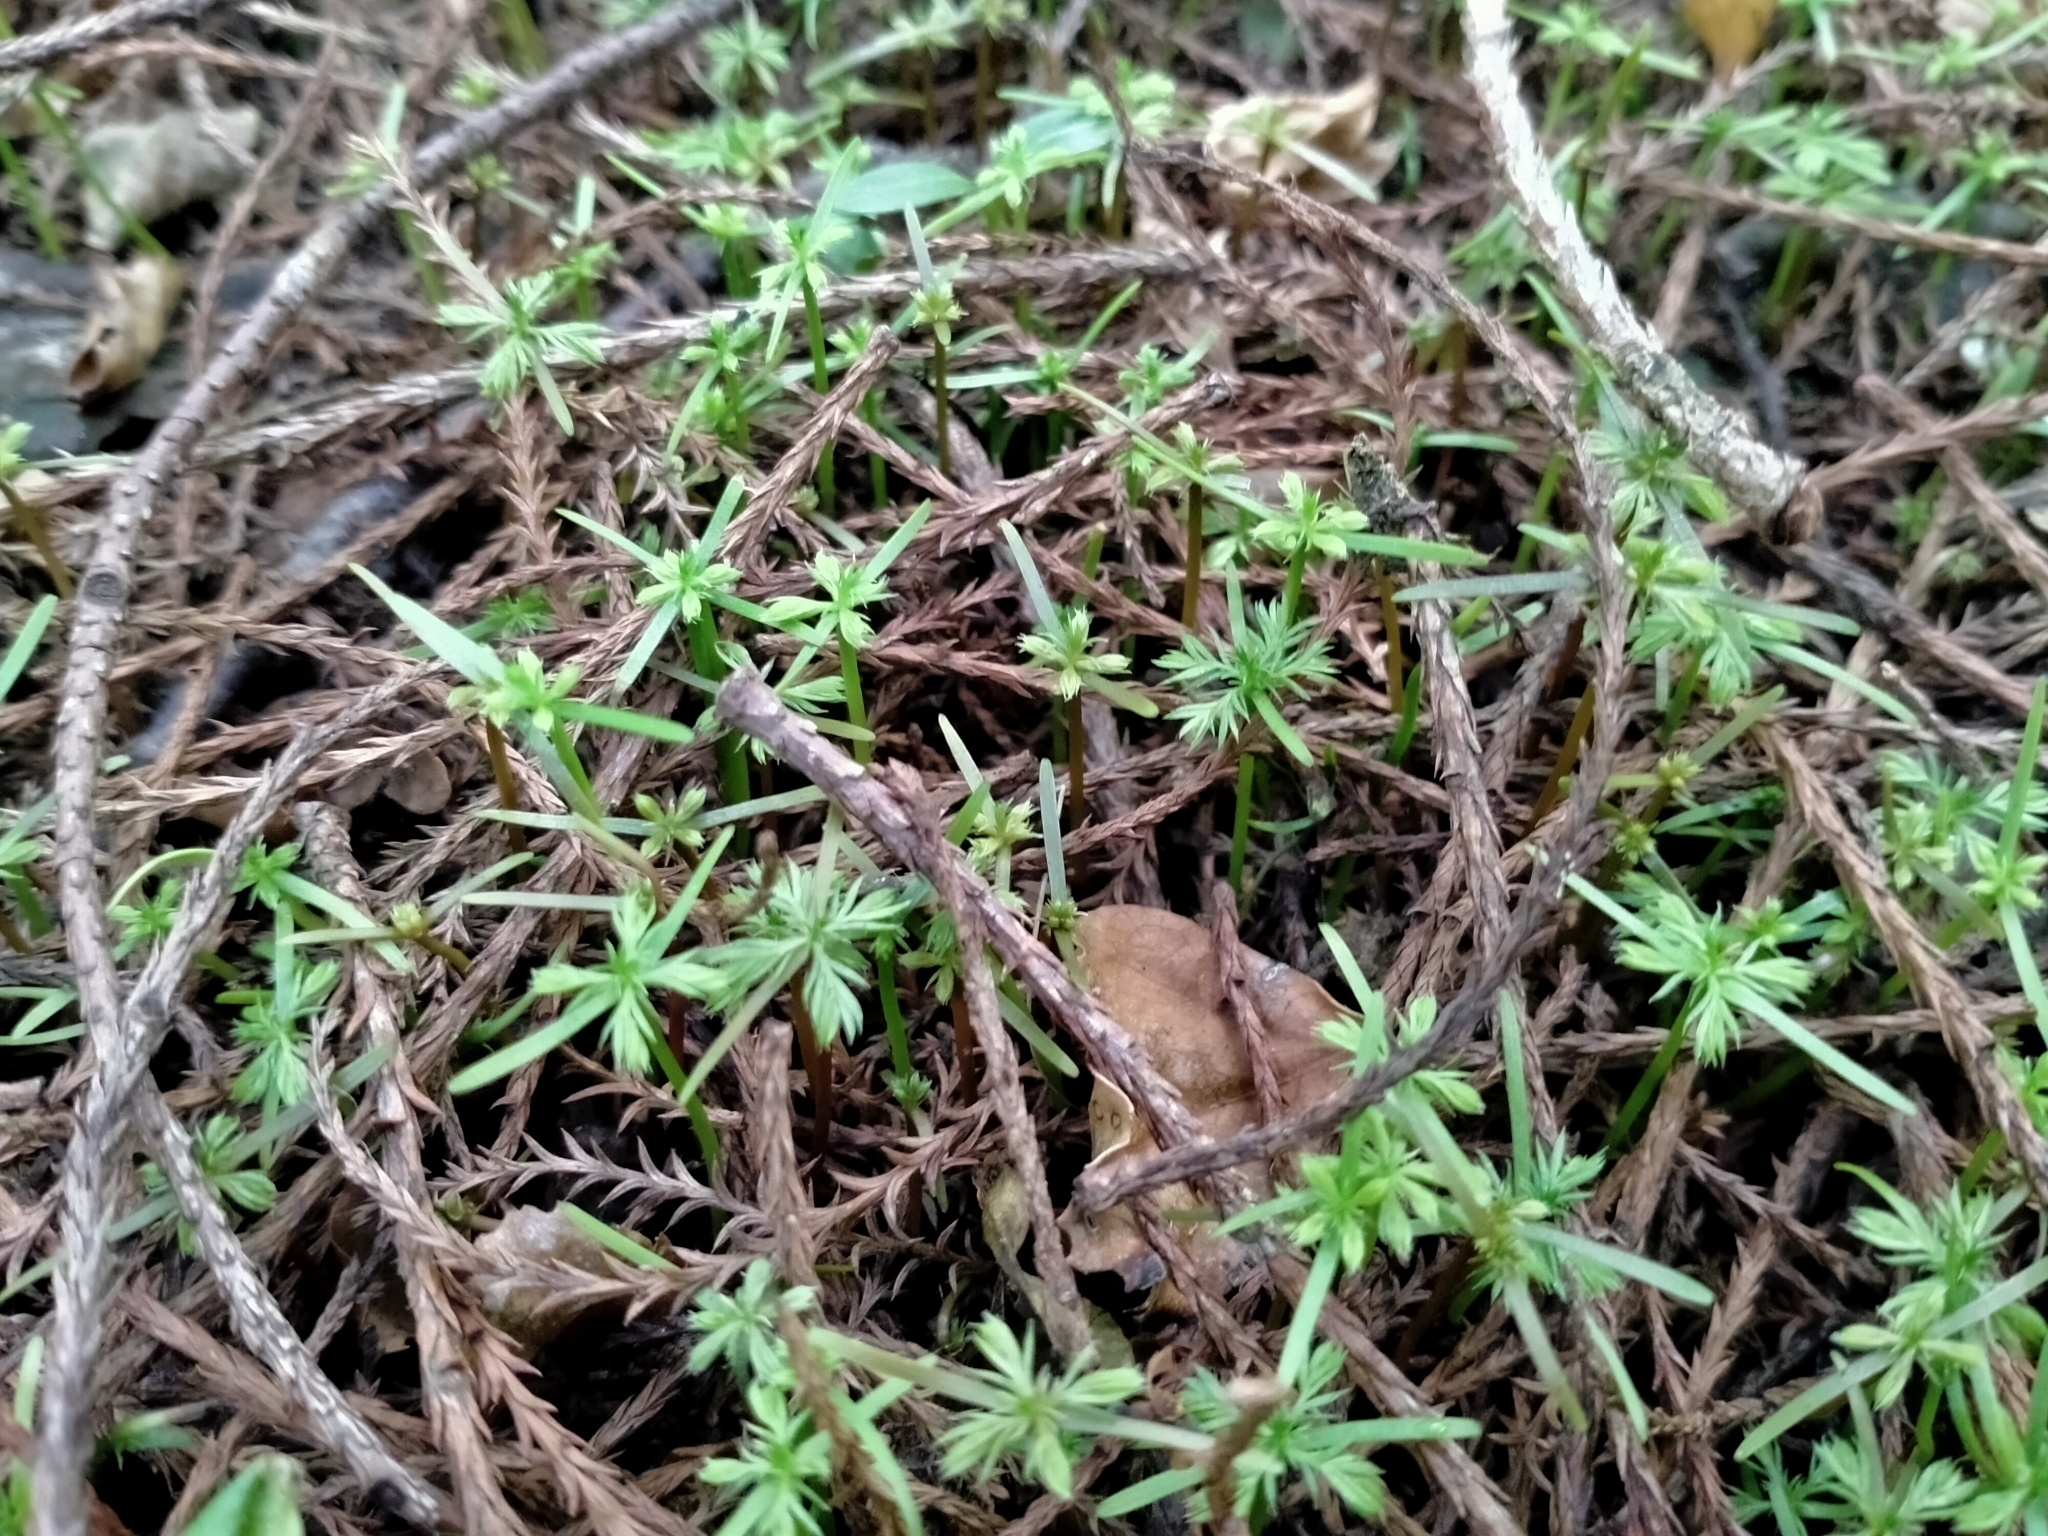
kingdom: Plantae
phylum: Tracheophyta
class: Pinopsida
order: Pinales
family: Podocarpaceae
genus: Dacrycarpus
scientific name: Dacrycarpus dacrydioides
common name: White pine
